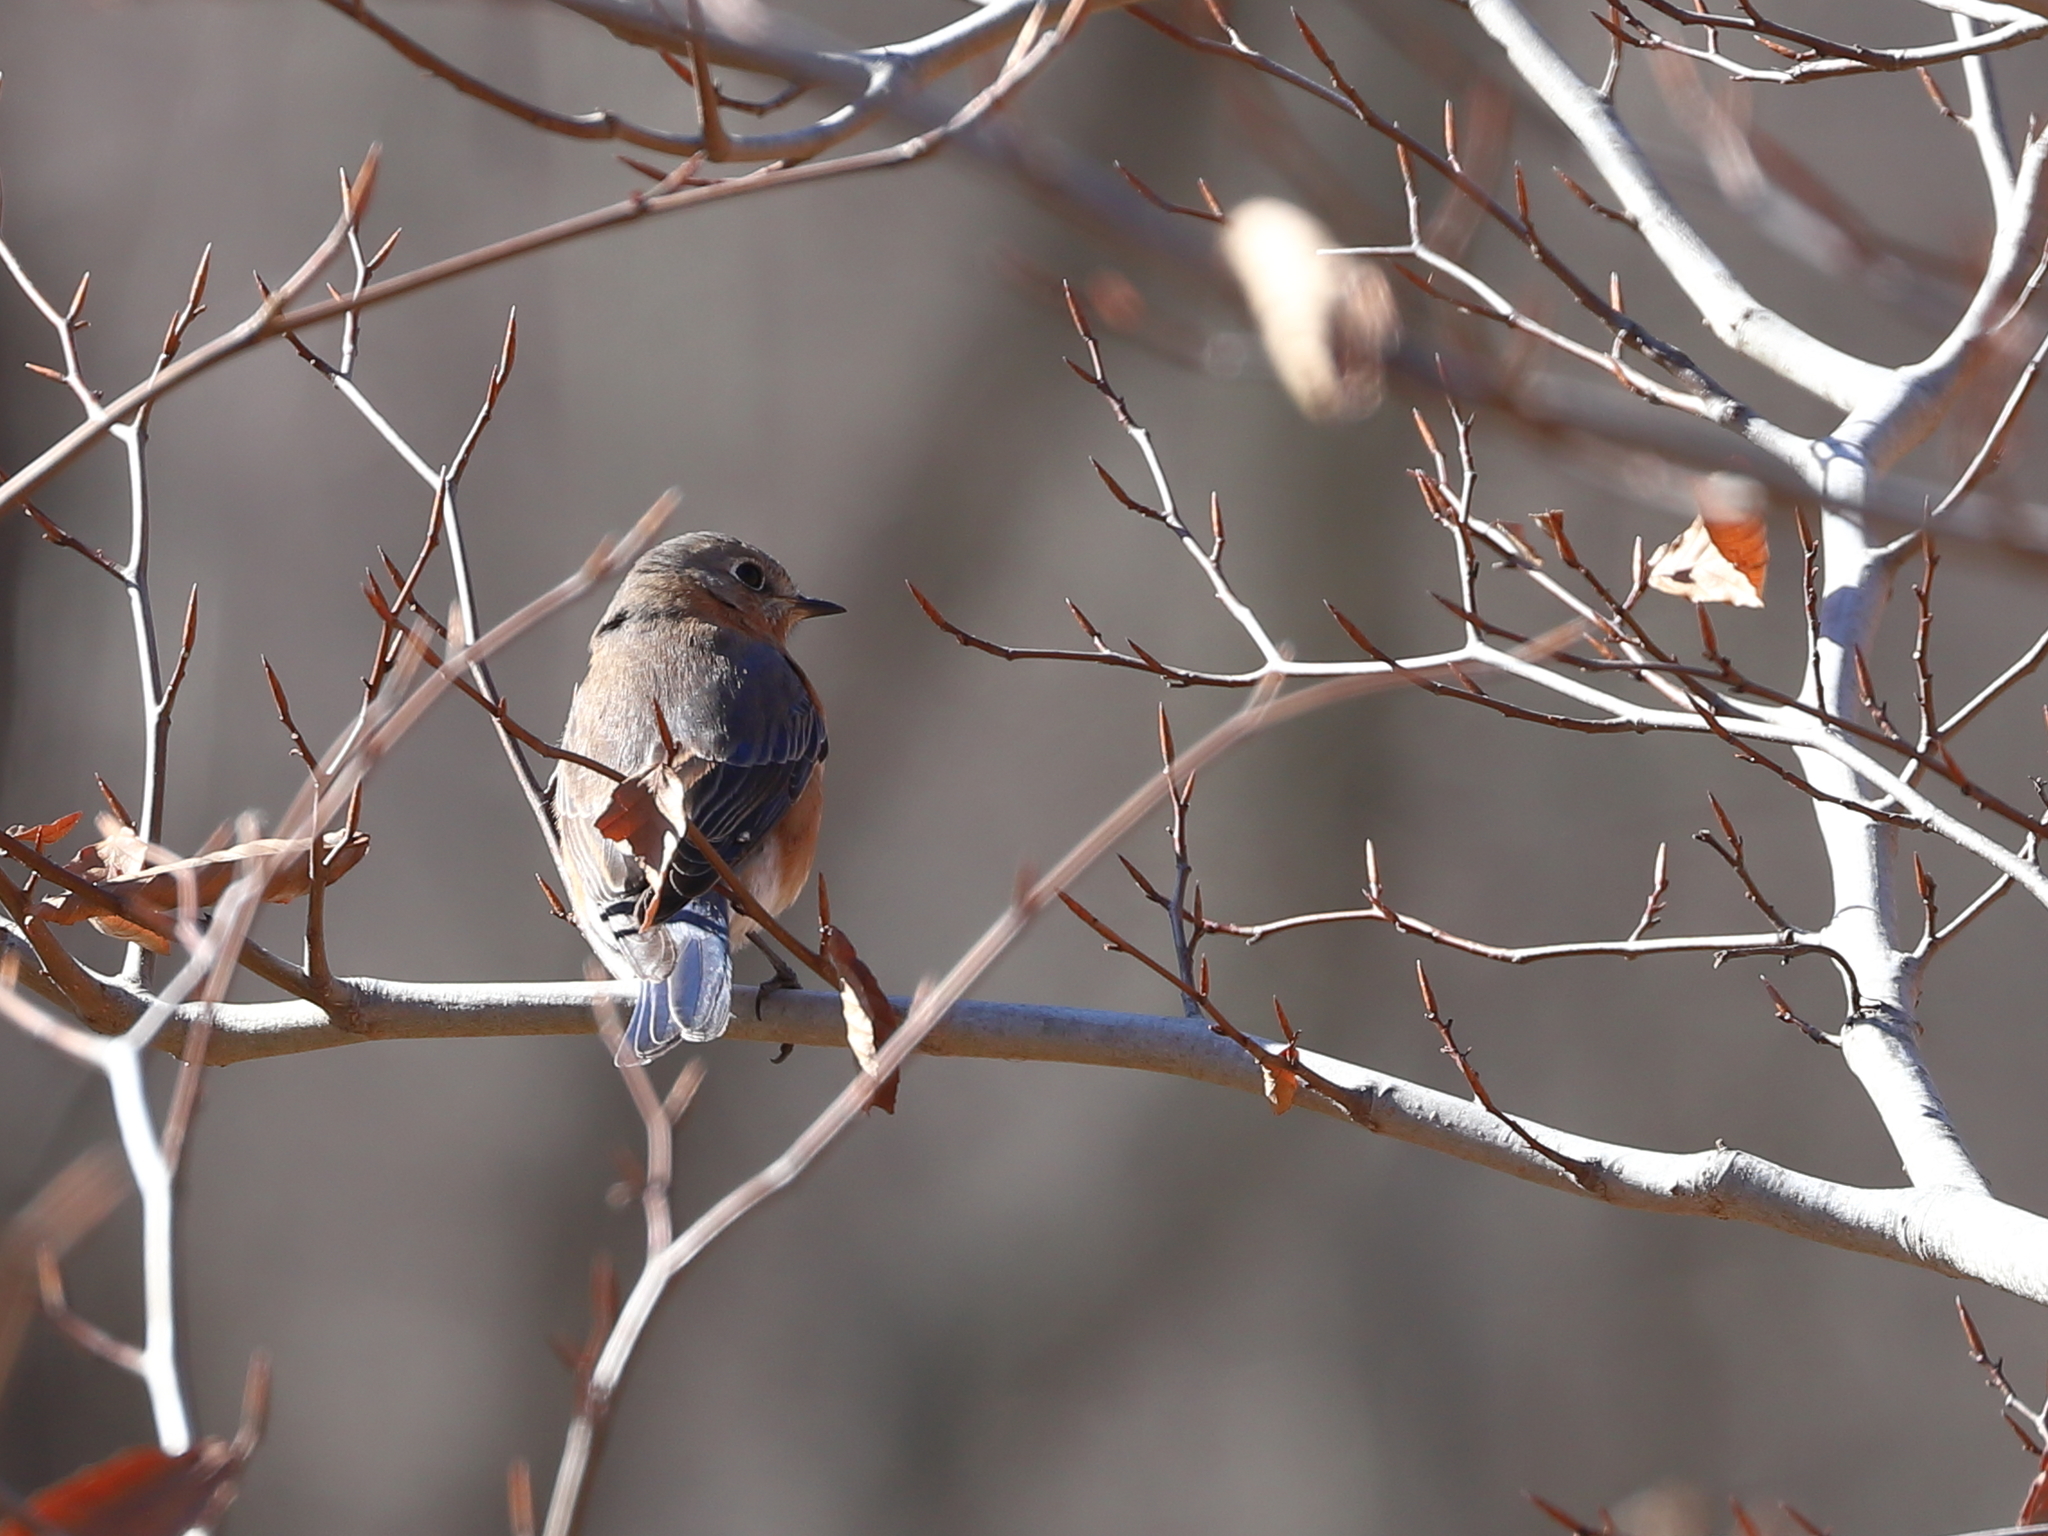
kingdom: Animalia
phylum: Chordata
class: Aves
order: Passeriformes
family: Turdidae
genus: Sialia
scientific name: Sialia sialis
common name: Eastern bluebird
